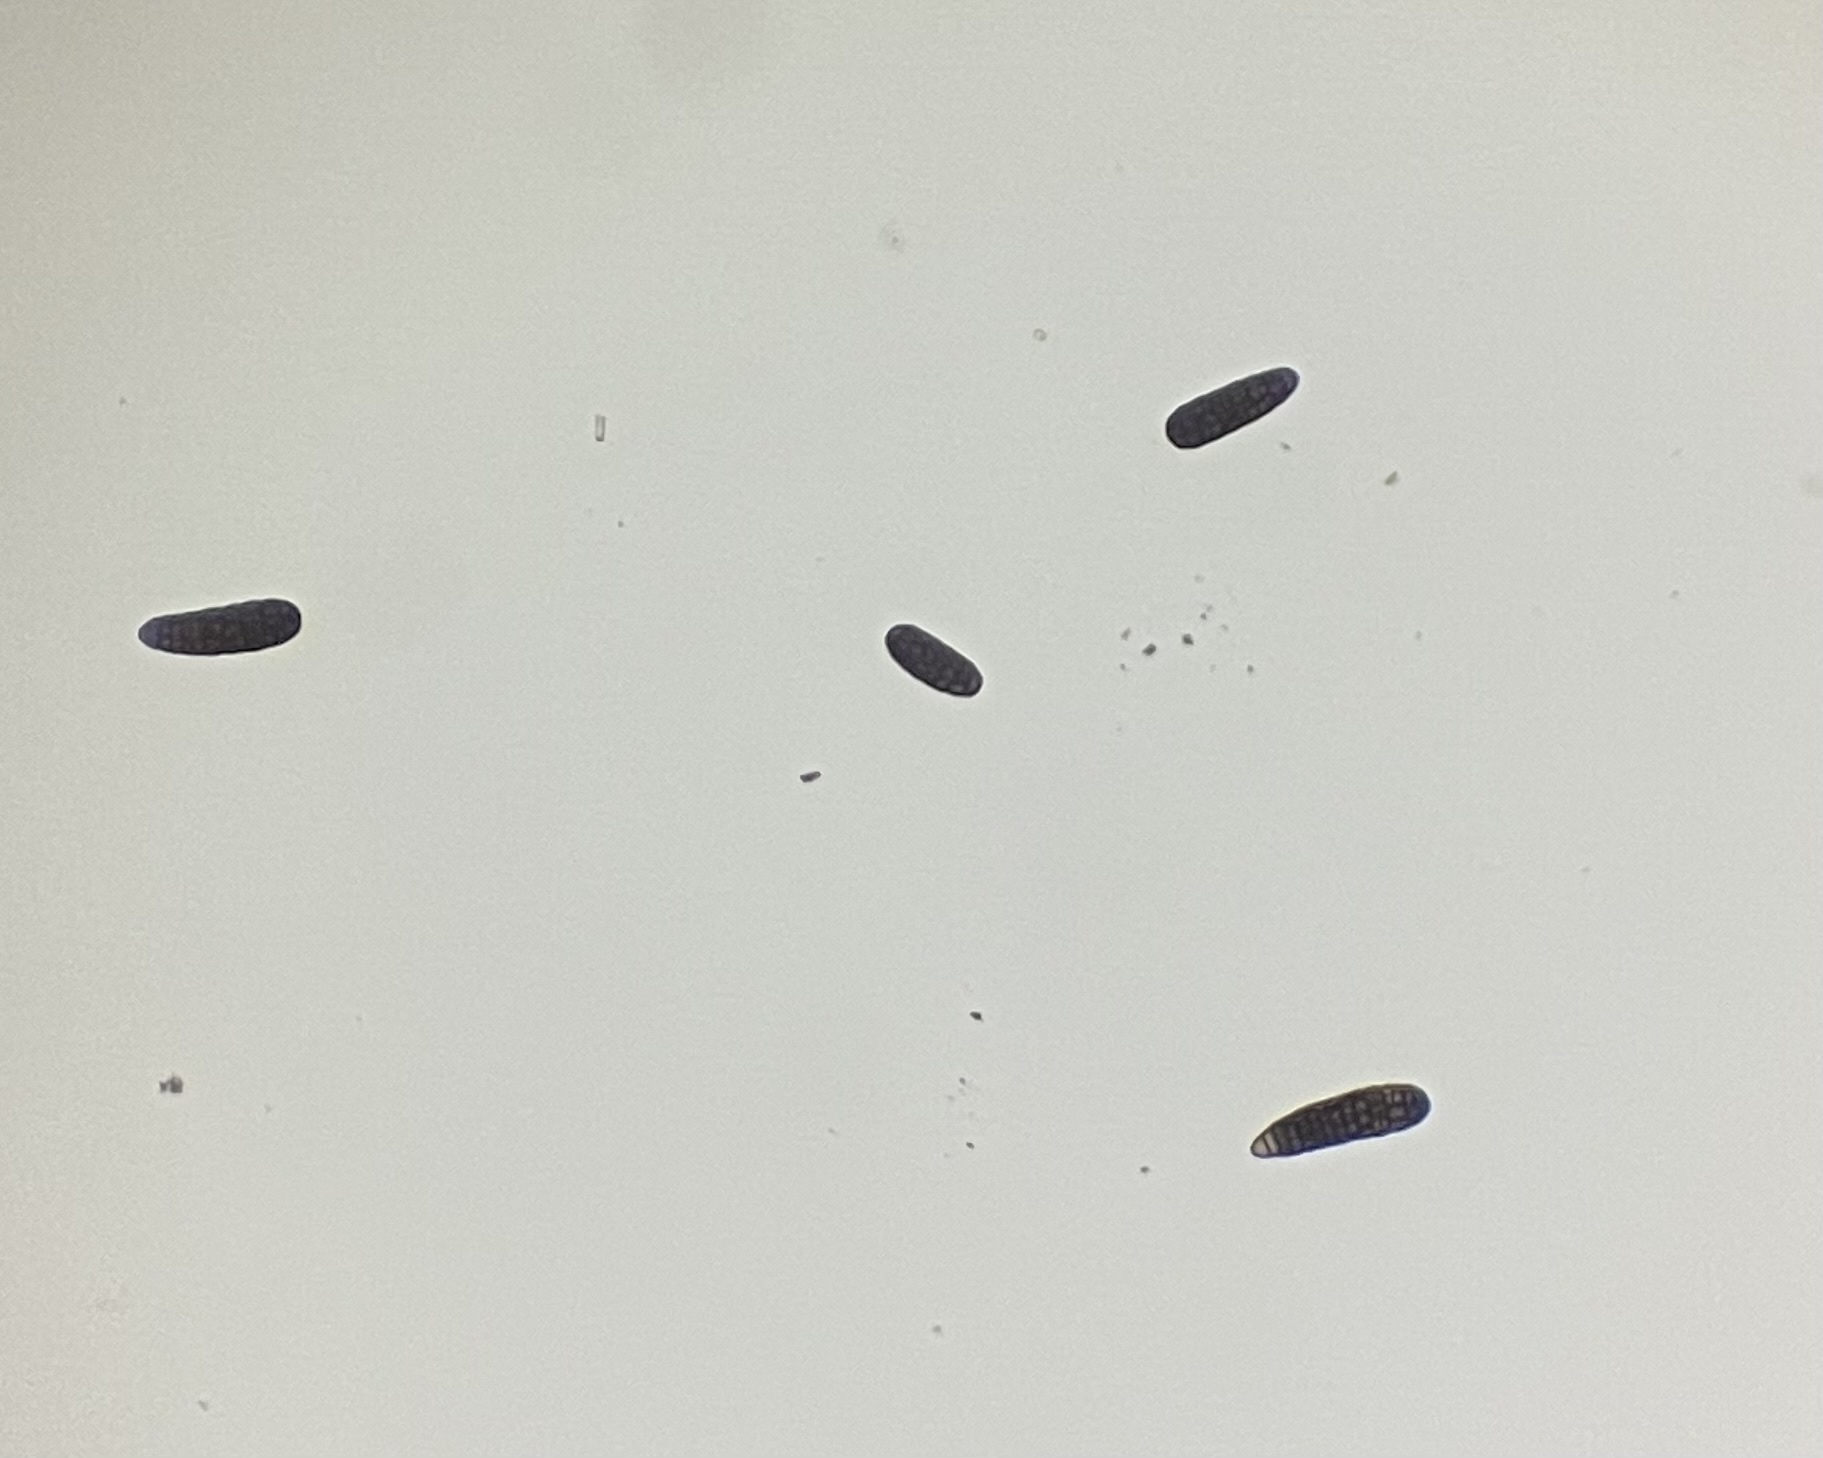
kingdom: Fungi
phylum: Ascomycota
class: Dothideomycetes
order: Pleosporales
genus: Berkleasmium
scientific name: Berkleasmium concinnum
